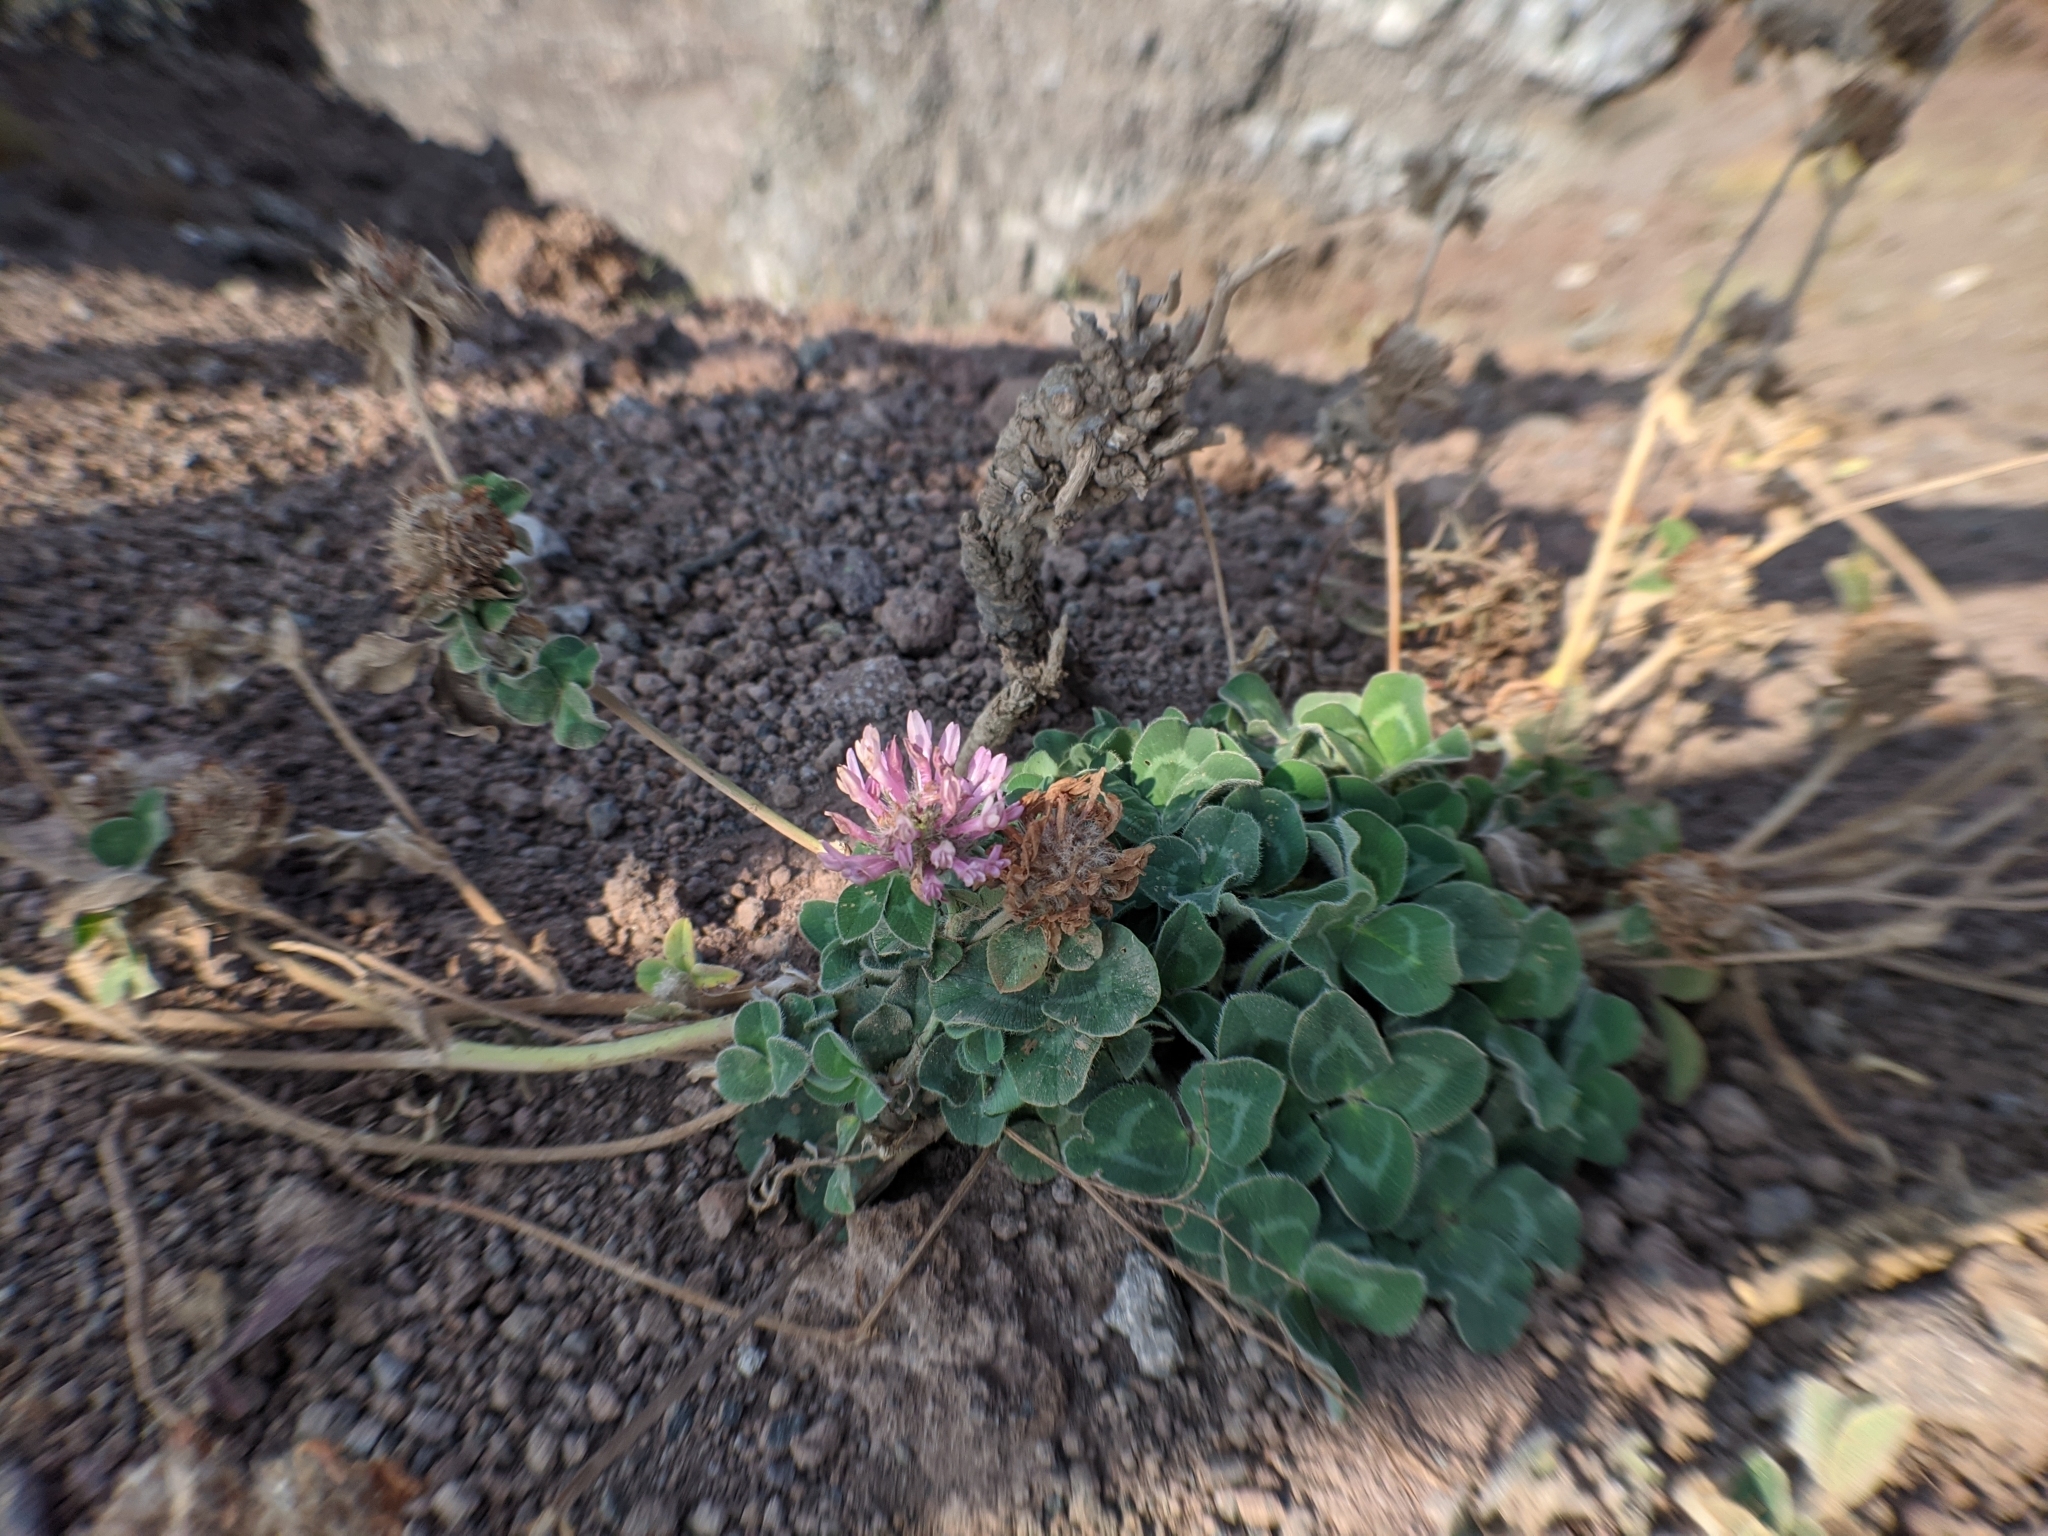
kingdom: Plantae
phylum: Tracheophyta
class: Magnoliopsida
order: Fabales
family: Fabaceae
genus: Trifolium
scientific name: Trifolium pratense
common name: Red clover
